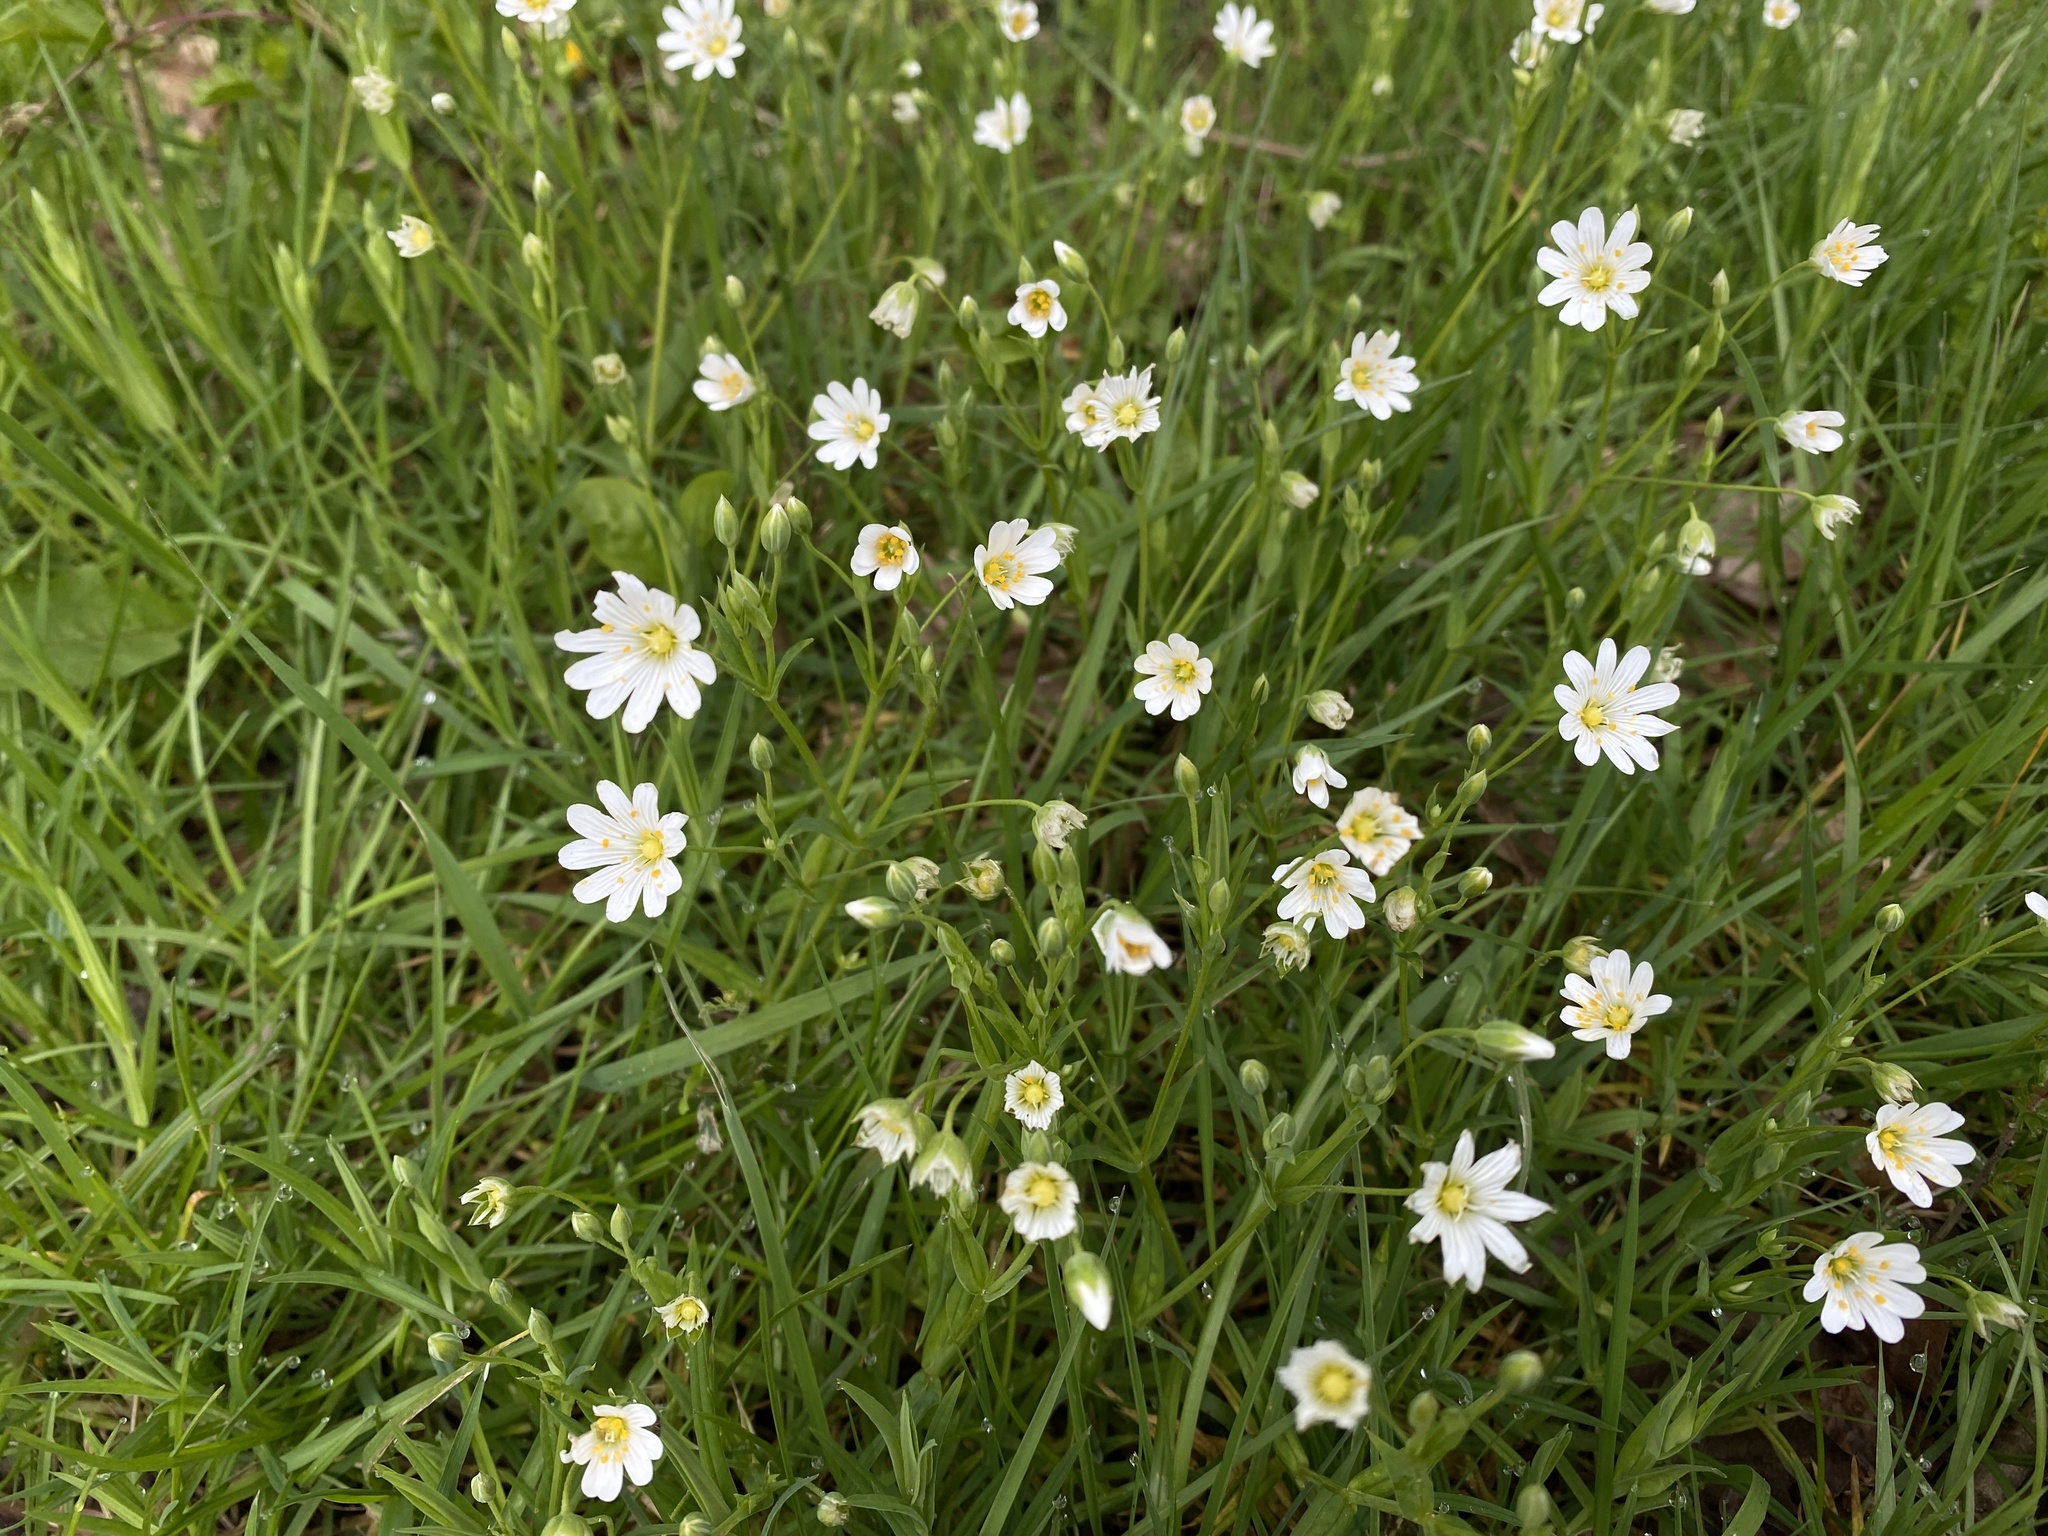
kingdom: Plantae
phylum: Tracheophyta
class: Magnoliopsida
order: Caryophyllales
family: Caryophyllaceae
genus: Rabelera
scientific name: Rabelera holostea
